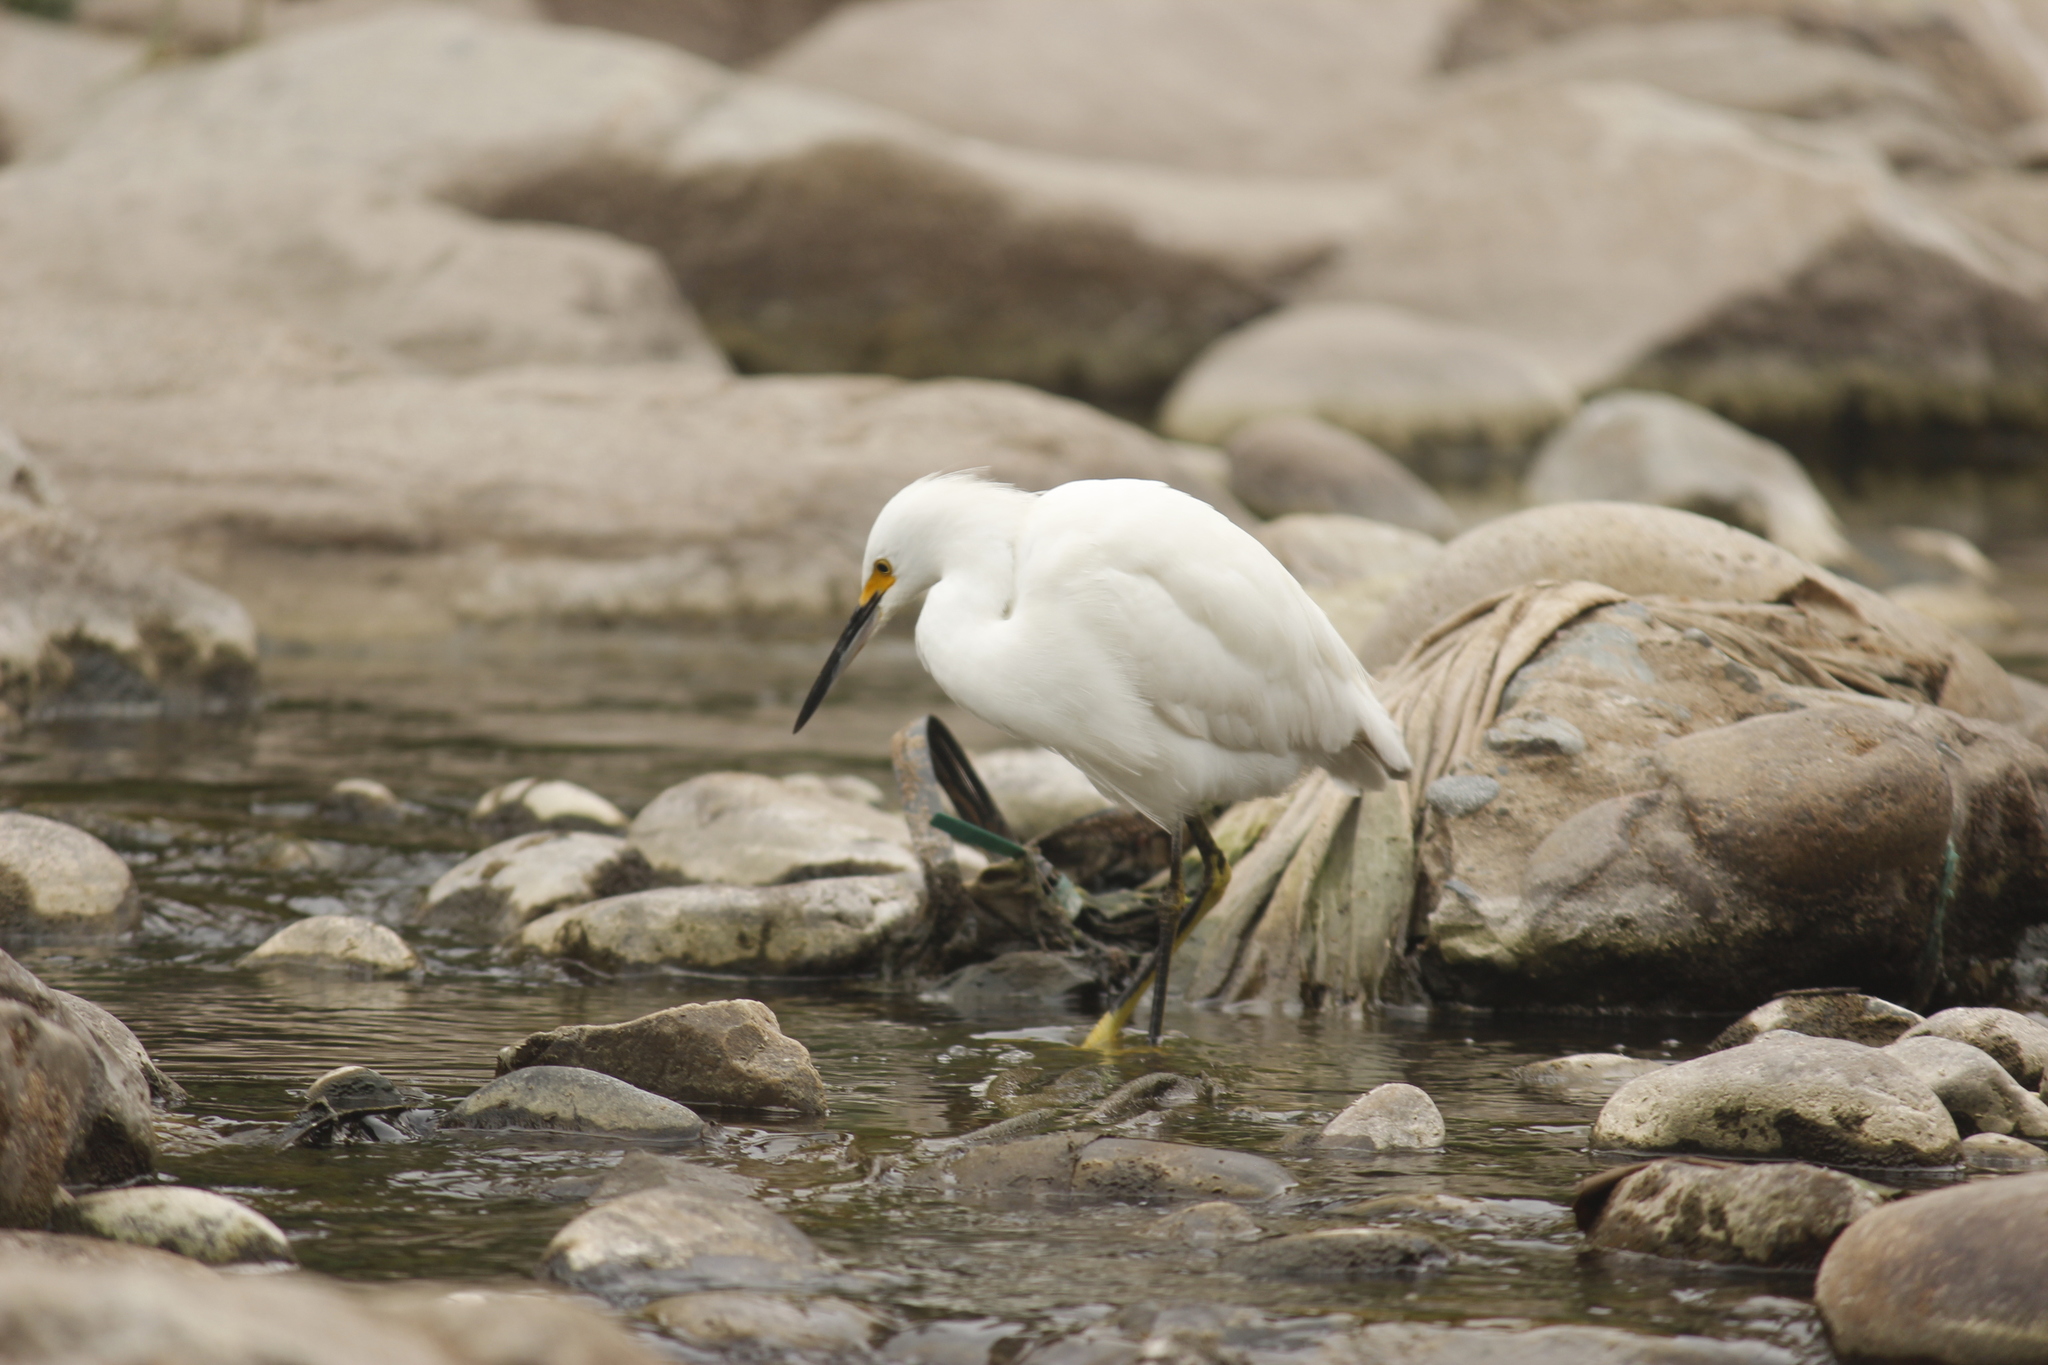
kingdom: Animalia
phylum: Chordata
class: Aves
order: Pelecaniformes
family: Ardeidae
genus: Egretta
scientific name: Egretta thula
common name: Snowy egret
